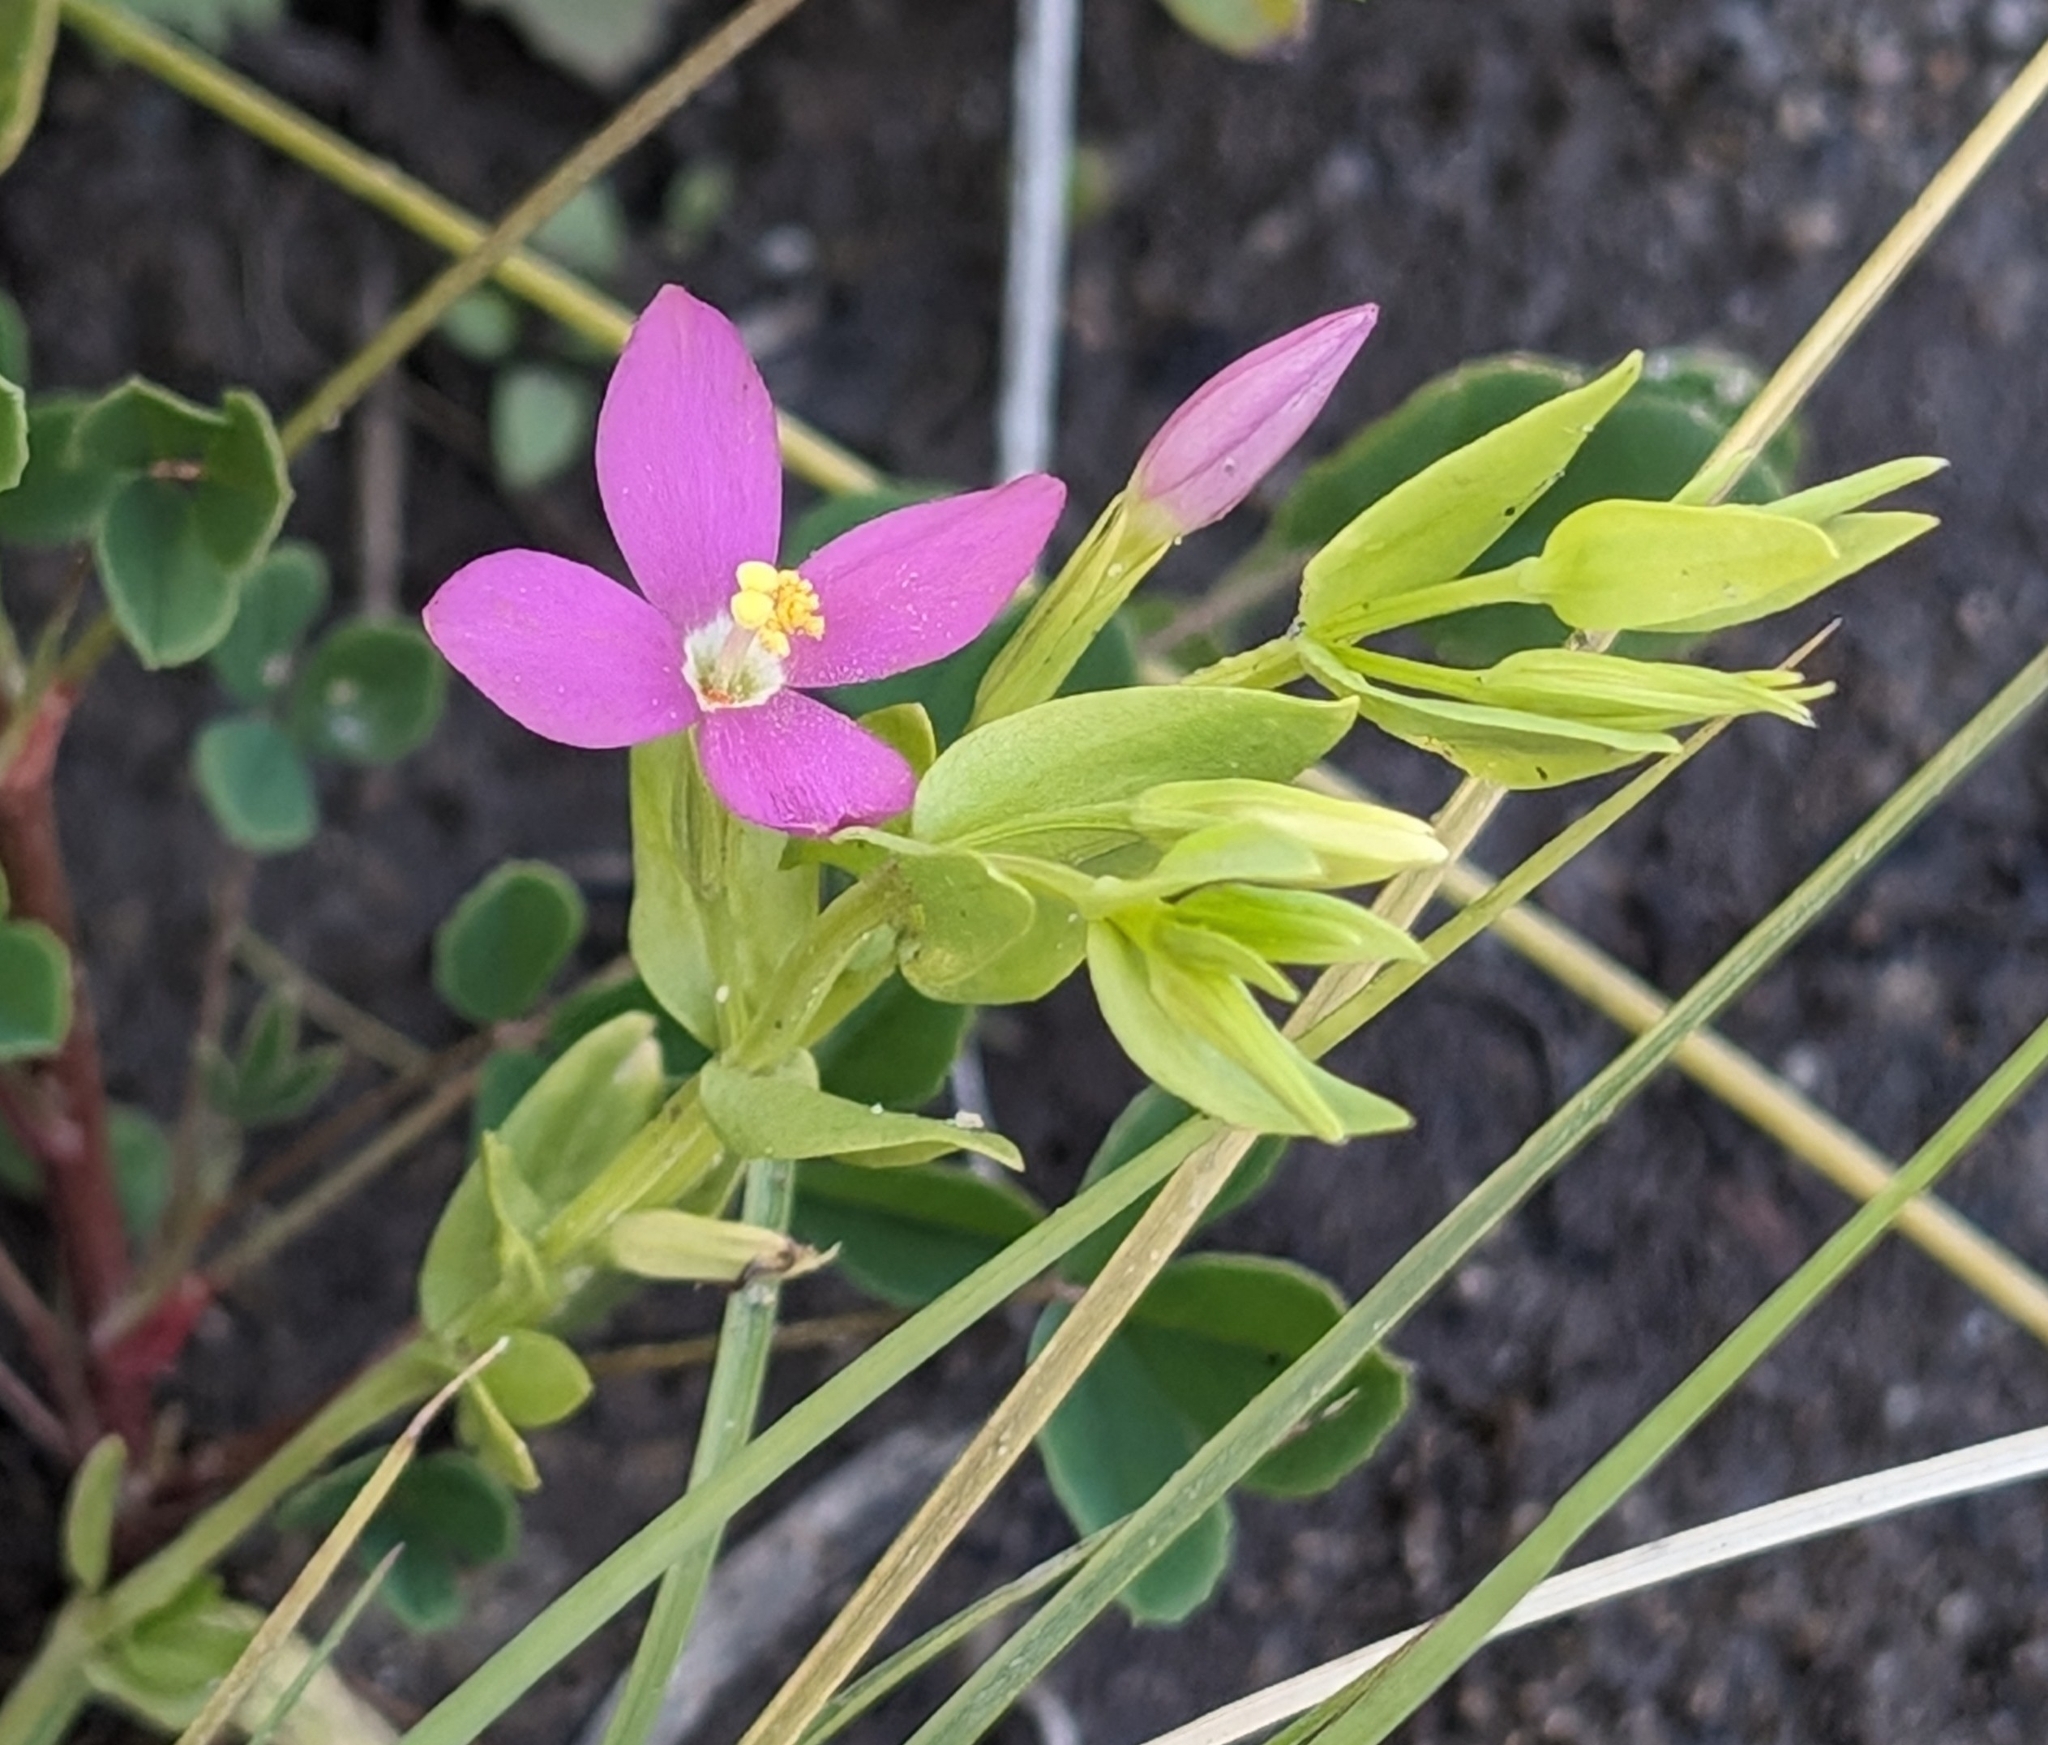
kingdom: Plantae
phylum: Tracheophyta
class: Magnoliopsida
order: Gentianales
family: Gentianaceae
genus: Zeltnera
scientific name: Zeltnera venusta
